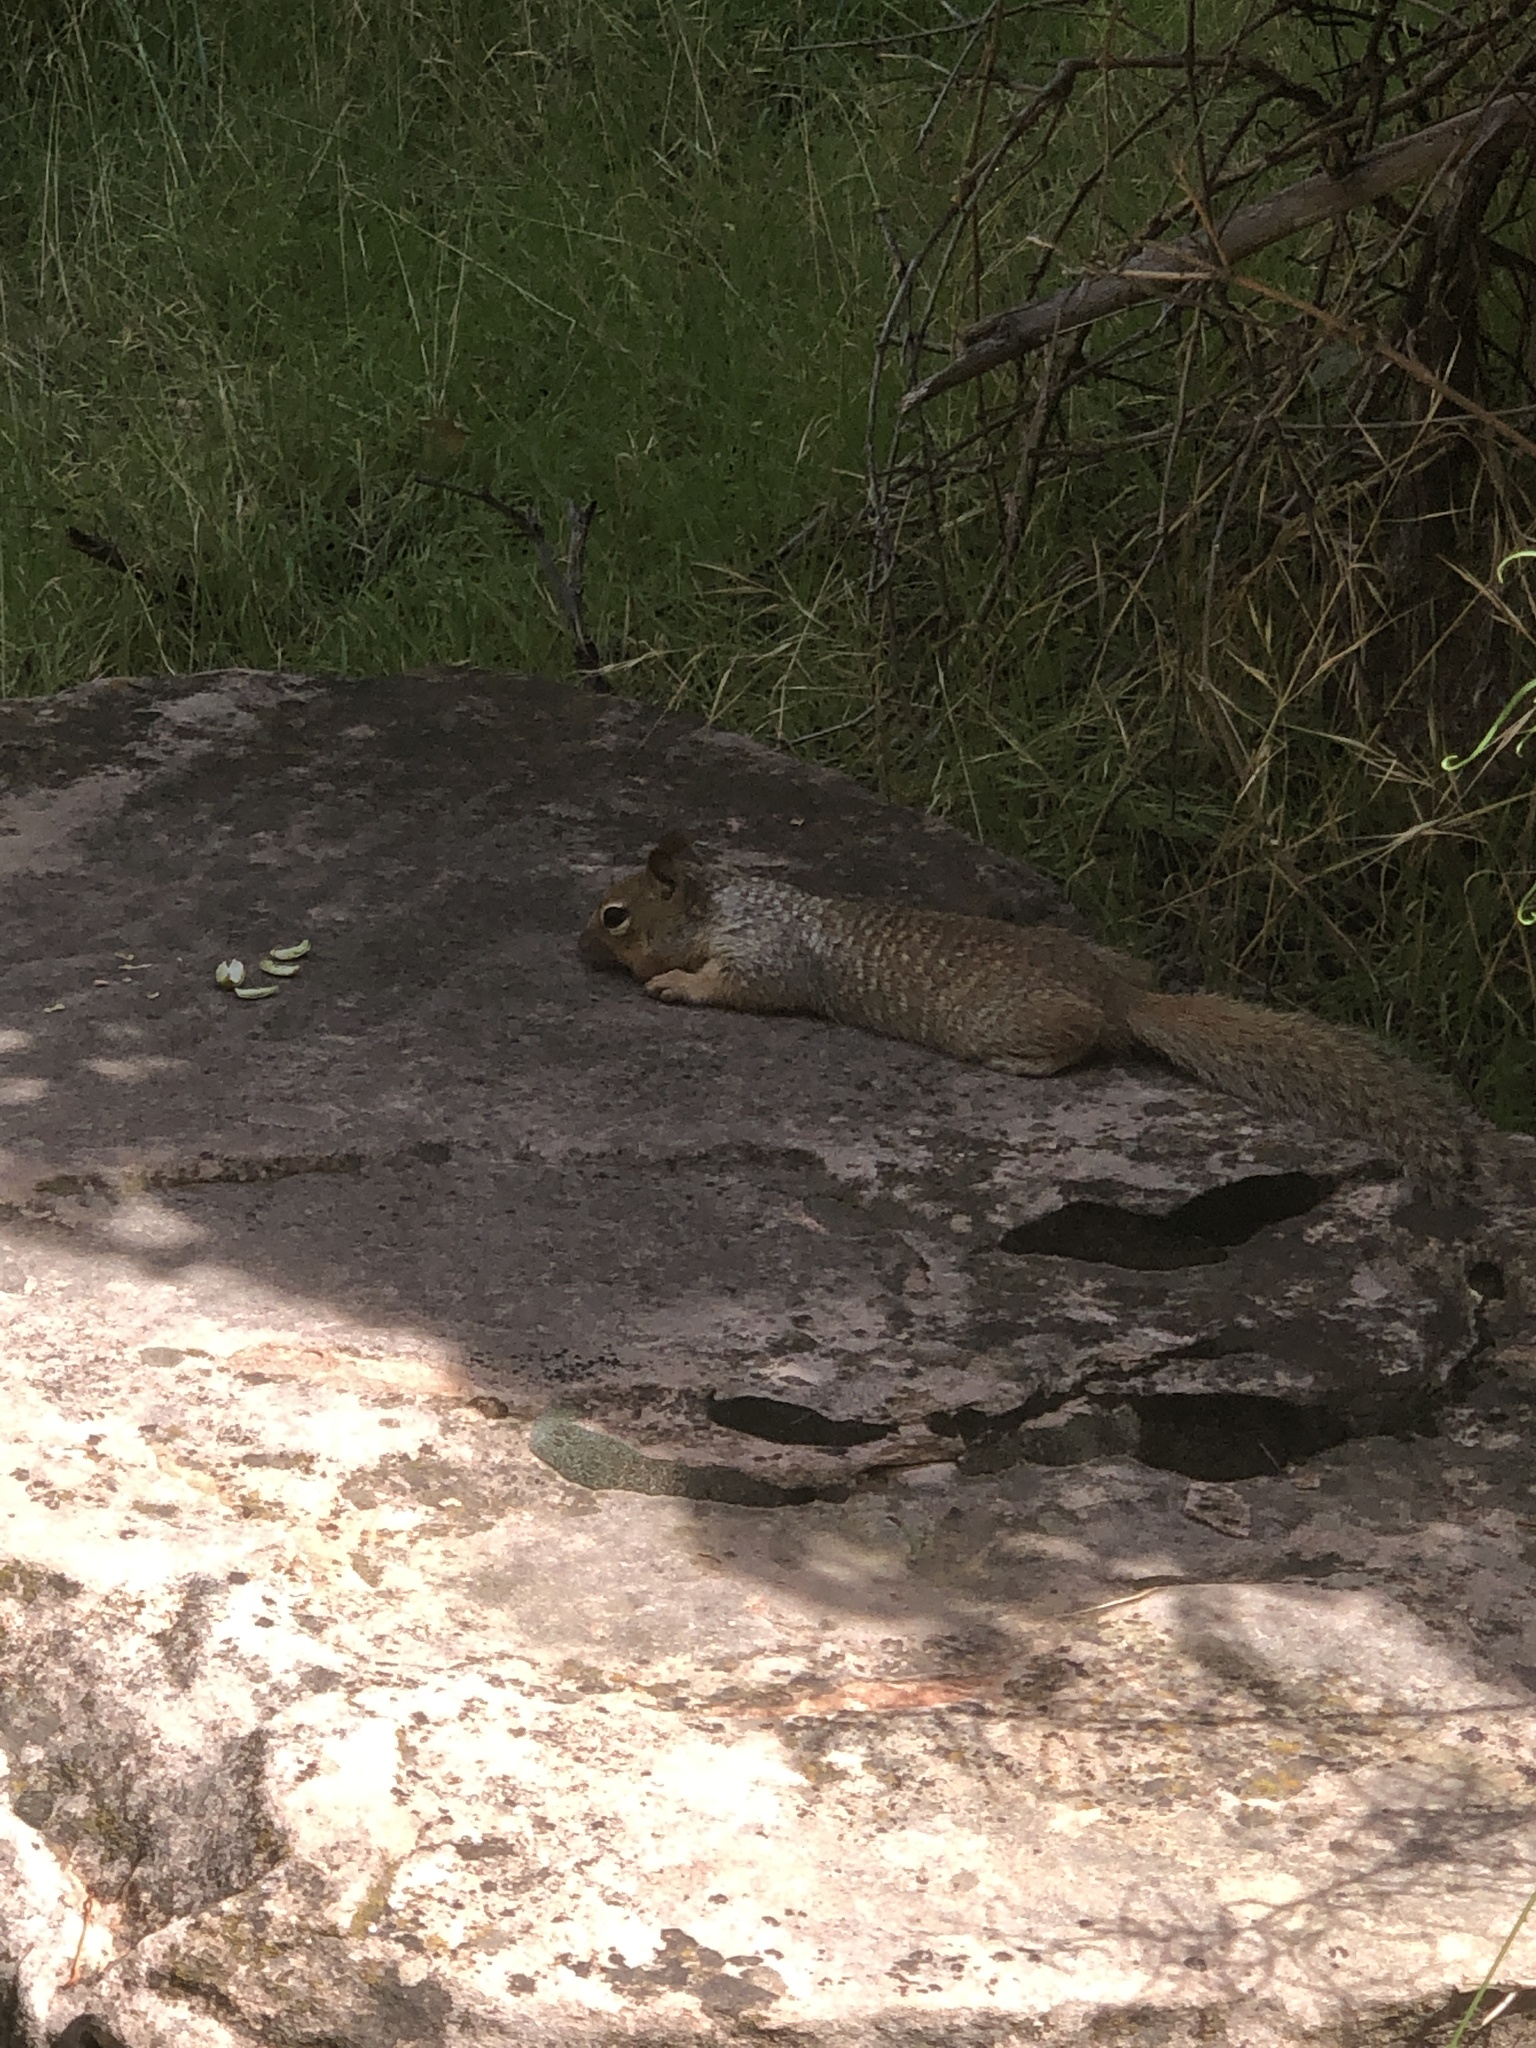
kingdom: Animalia
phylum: Chordata
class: Mammalia
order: Rodentia
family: Sciuridae
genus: Otospermophilus
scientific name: Otospermophilus variegatus
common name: Rock squirrel
